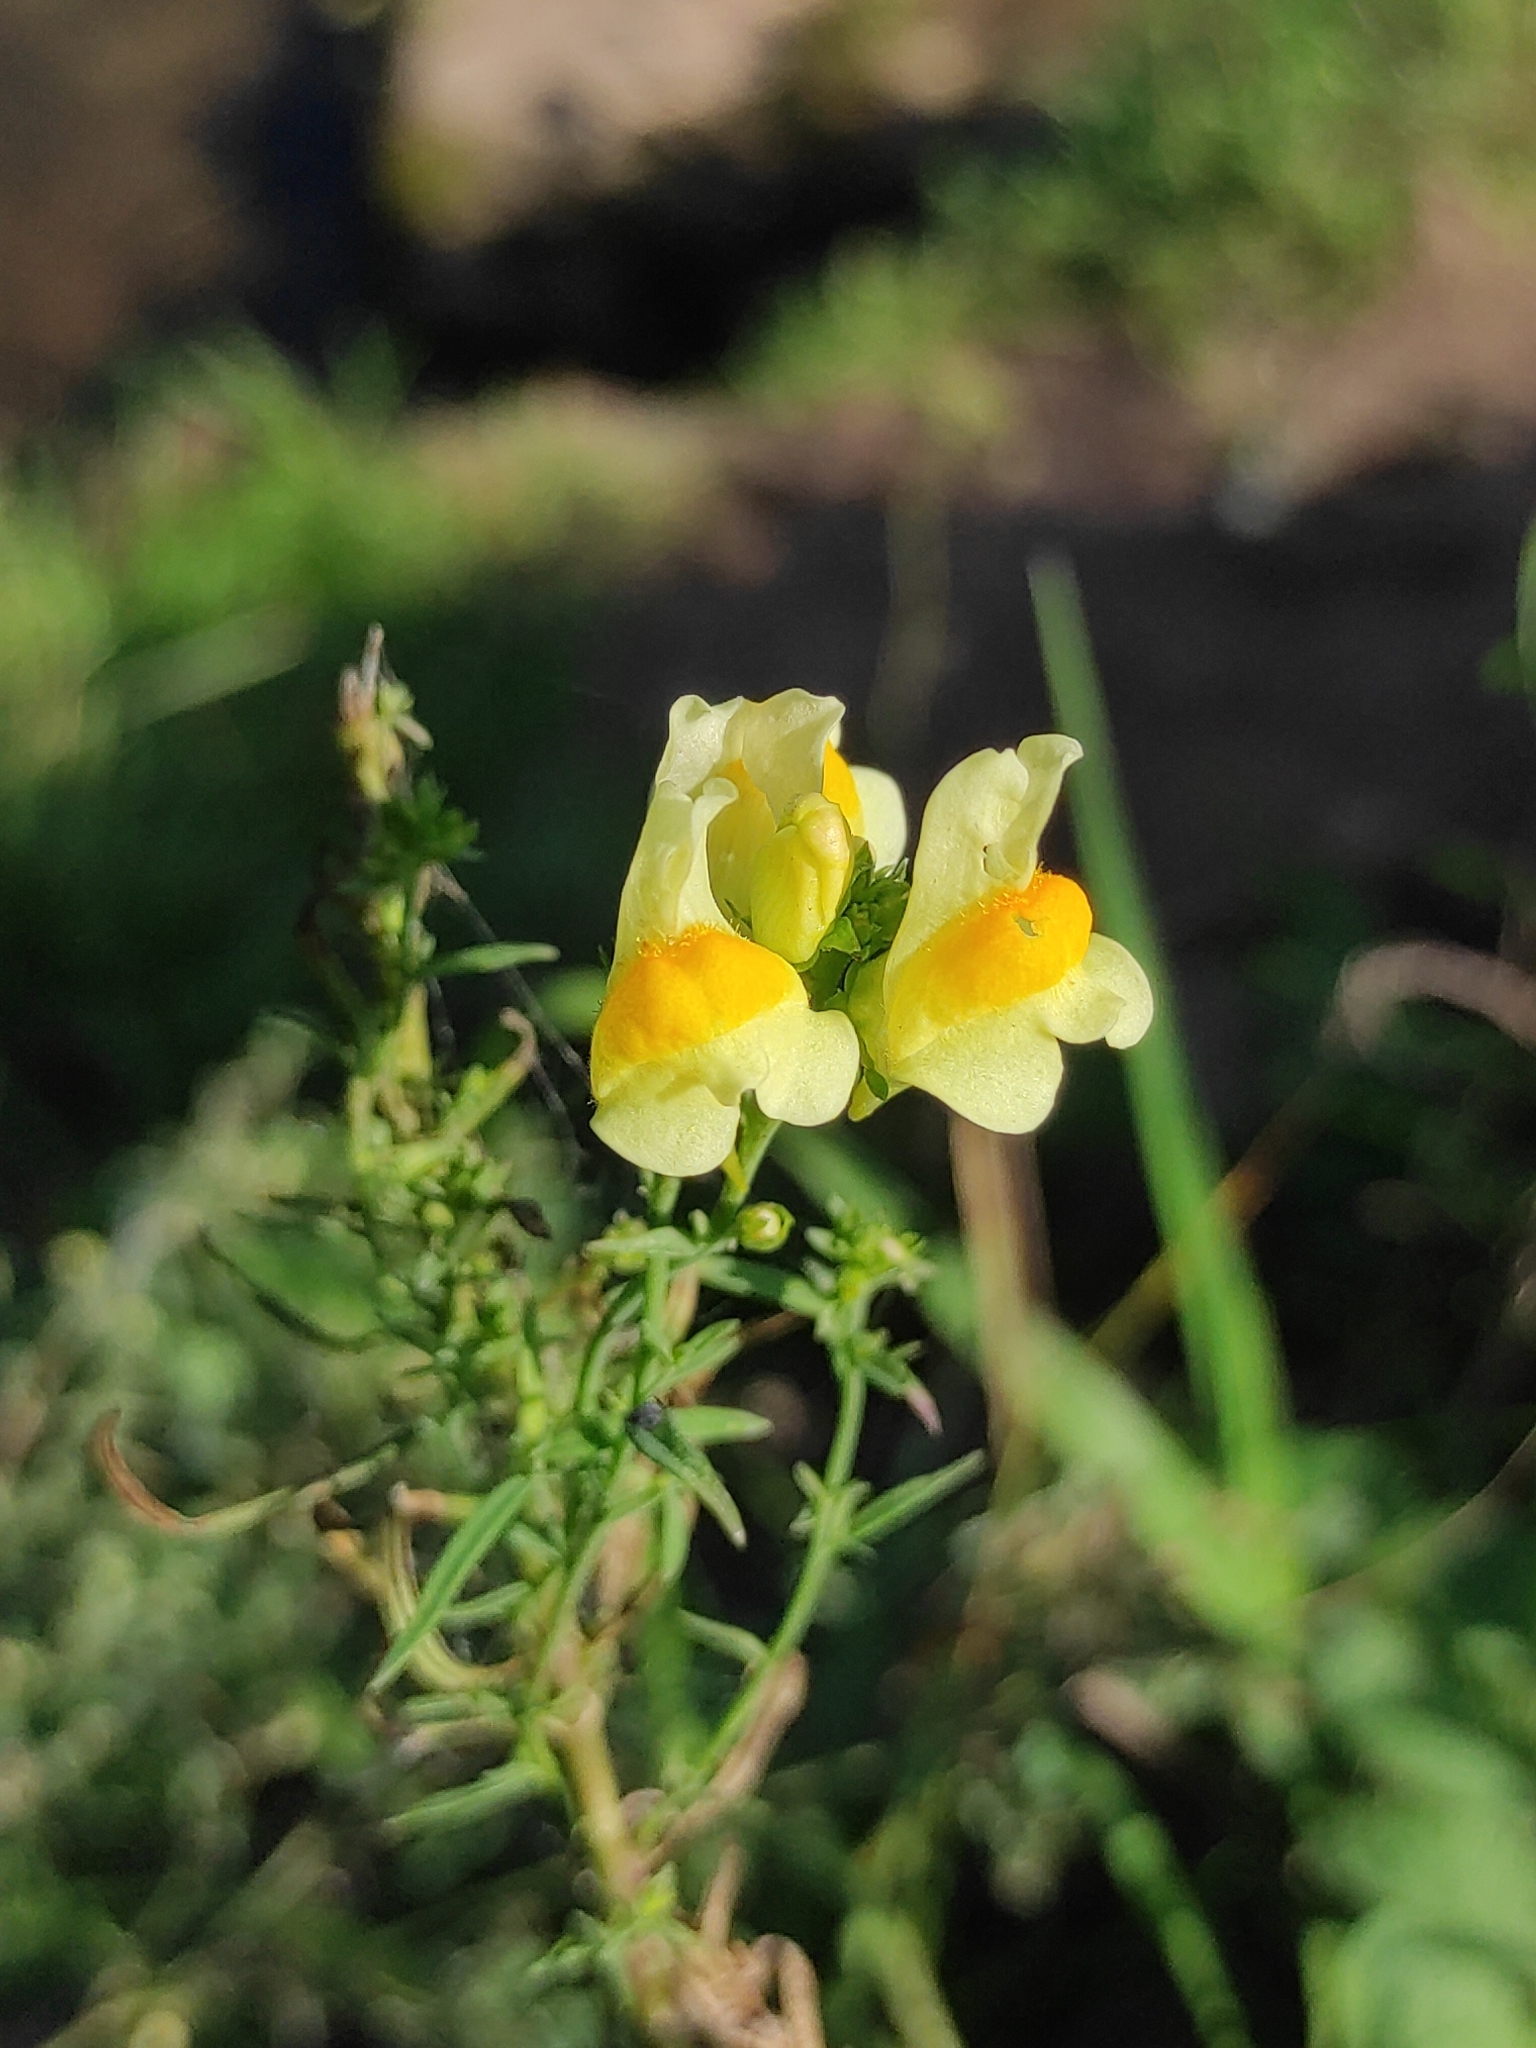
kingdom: Plantae
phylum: Tracheophyta
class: Magnoliopsida
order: Lamiales
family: Plantaginaceae
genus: Linaria
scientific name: Linaria vulgaris
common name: Butter and eggs
